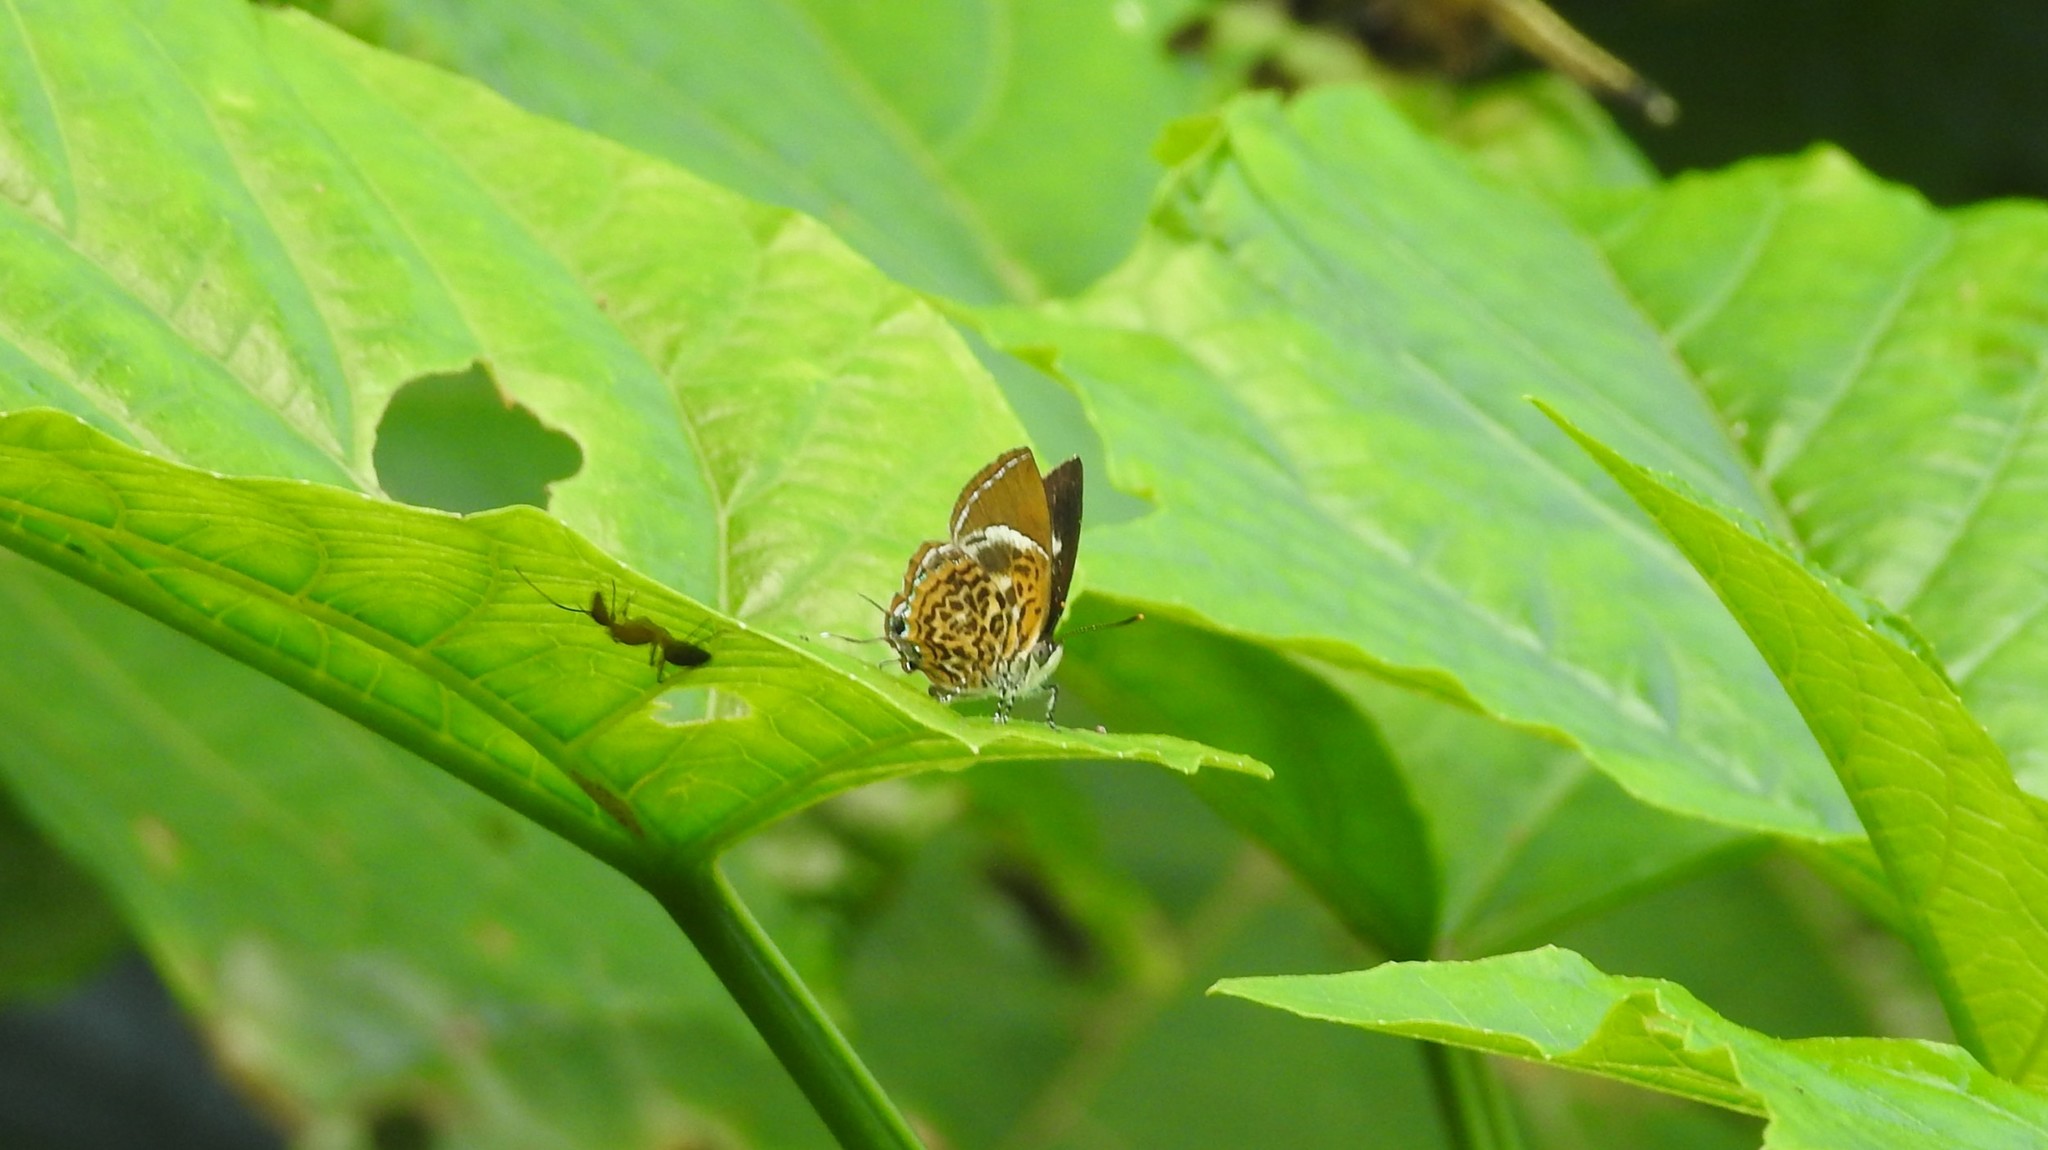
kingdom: Animalia
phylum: Arthropoda
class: Insecta
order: Lepidoptera
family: Lycaenidae
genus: Rathinda
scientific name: Rathinda amor
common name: Monkey puzzle
